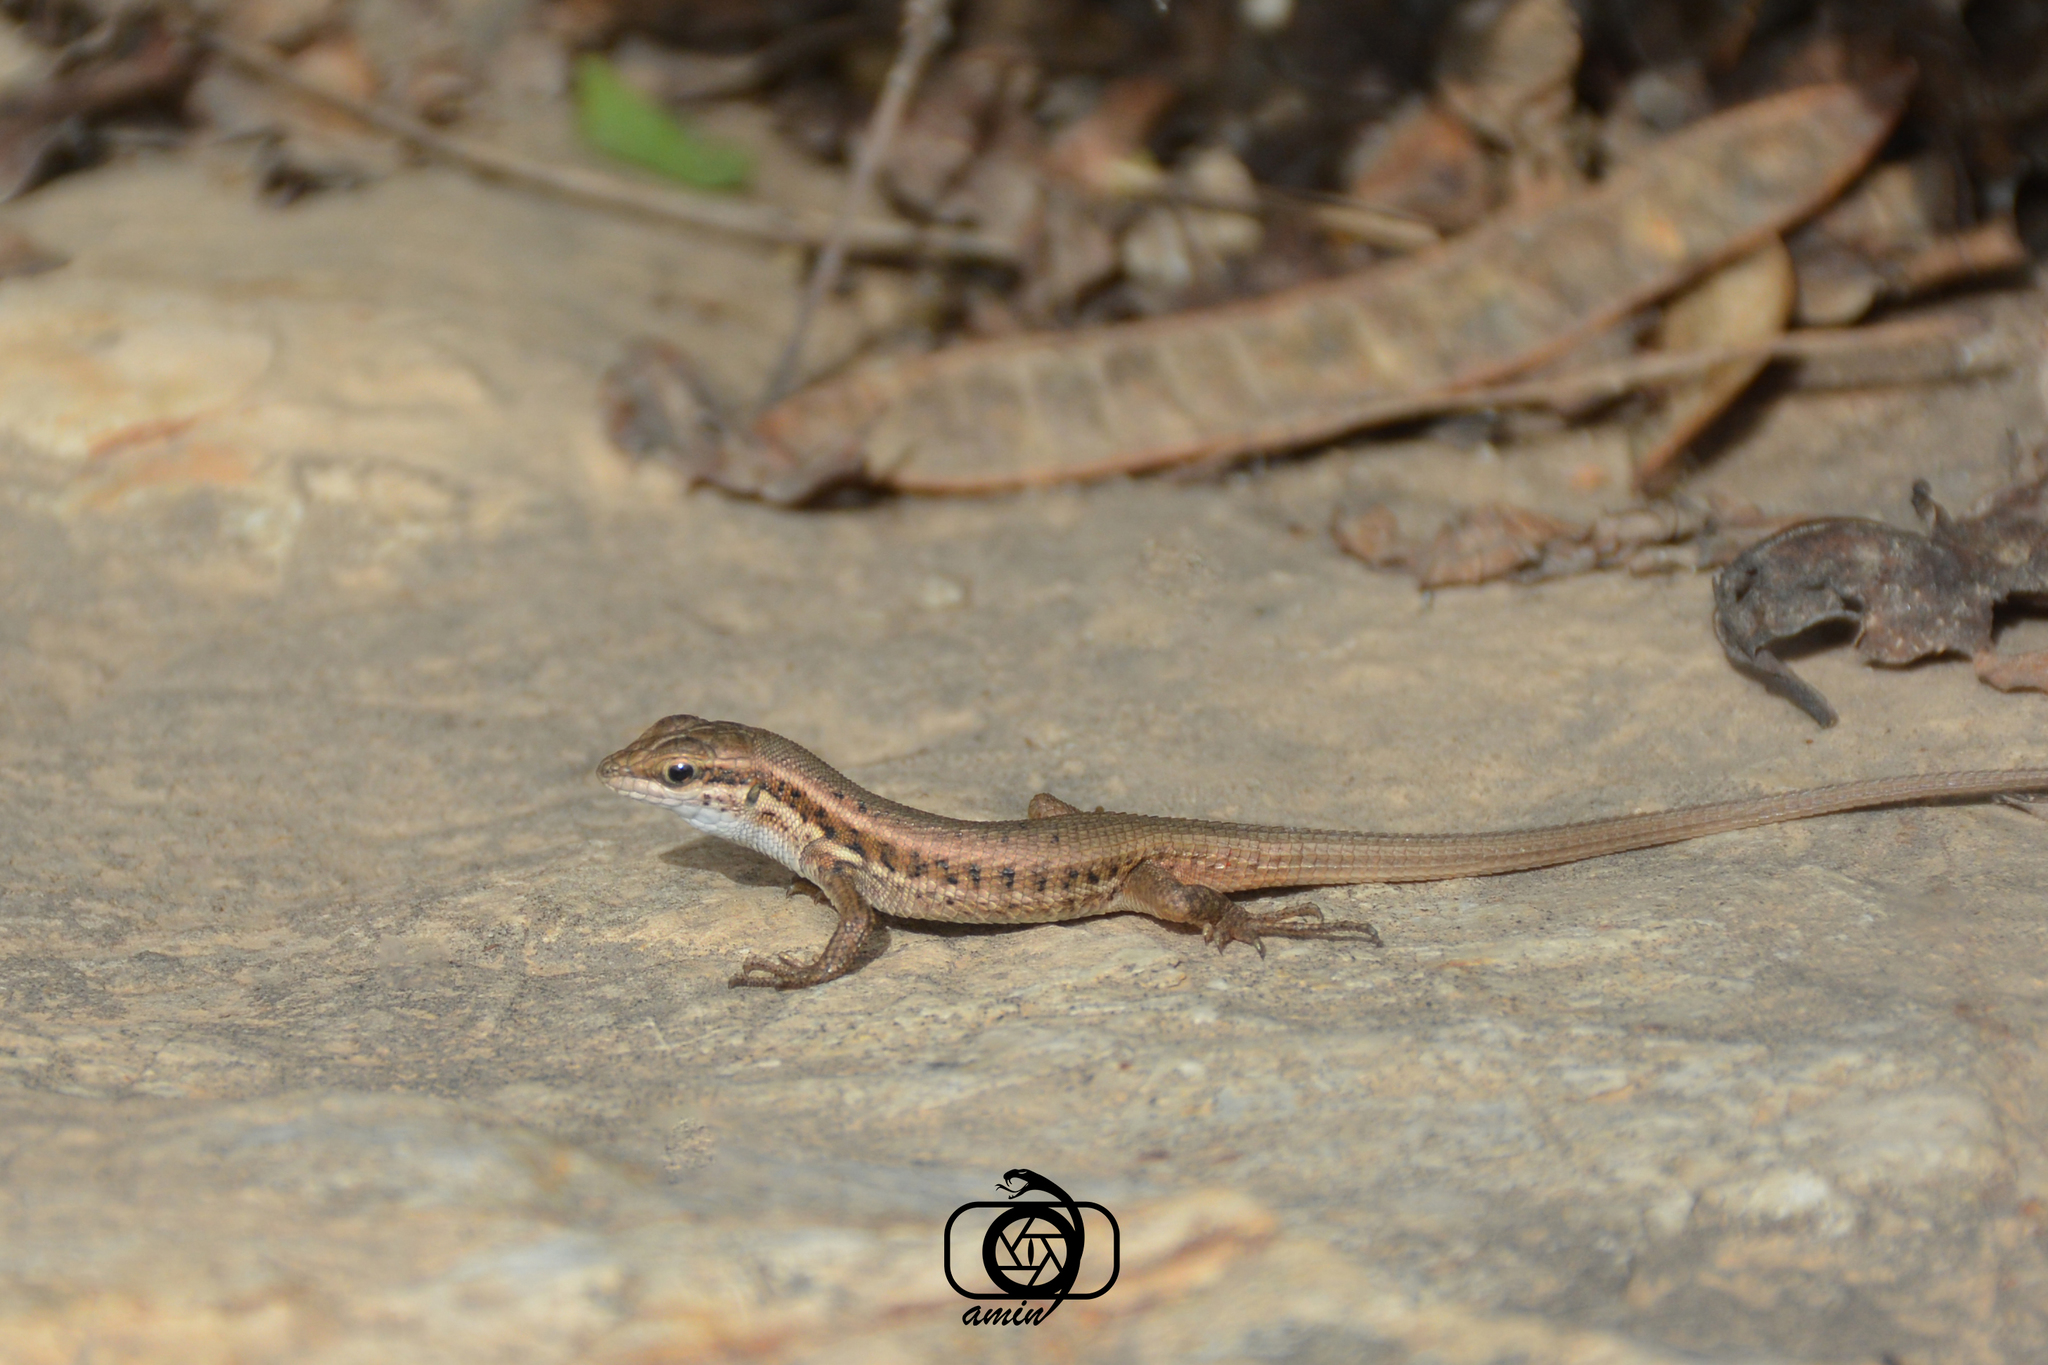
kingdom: Animalia
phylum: Chordata
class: Squamata
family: Lacertidae
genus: Ophisops
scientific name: Ophisops elegans
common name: Snake-eyed lizard
